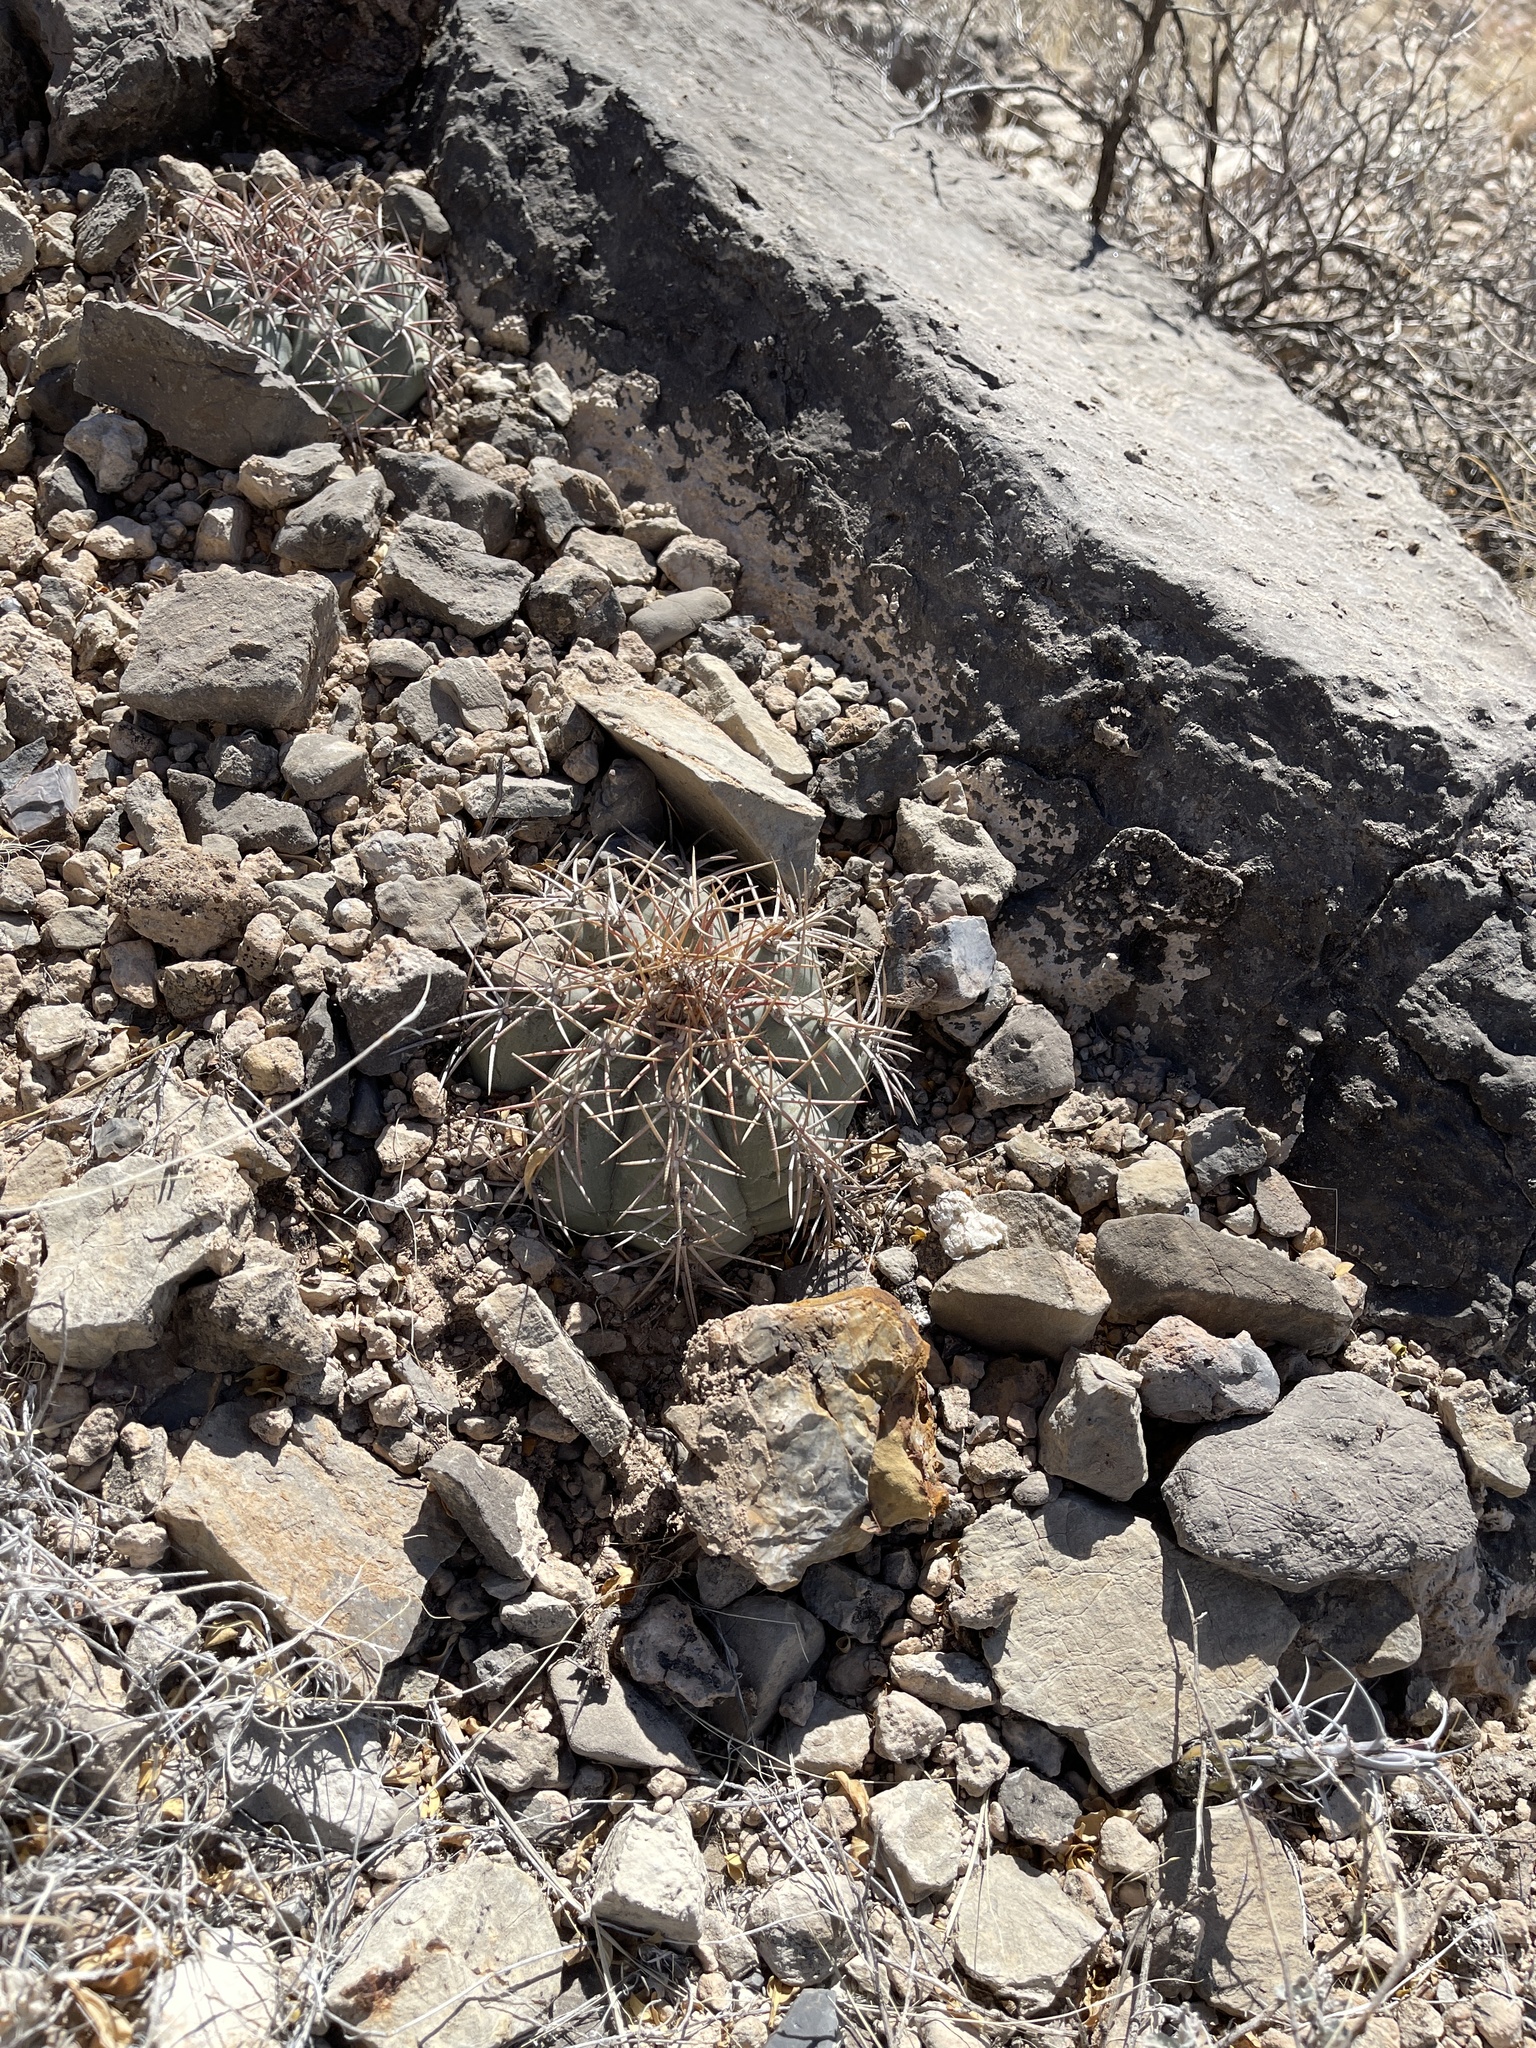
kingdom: Plantae
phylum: Tracheophyta
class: Magnoliopsida
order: Caryophyllales
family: Cactaceae
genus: Echinocactus
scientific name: Echinocactus horizonthalonius
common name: Devilshead
